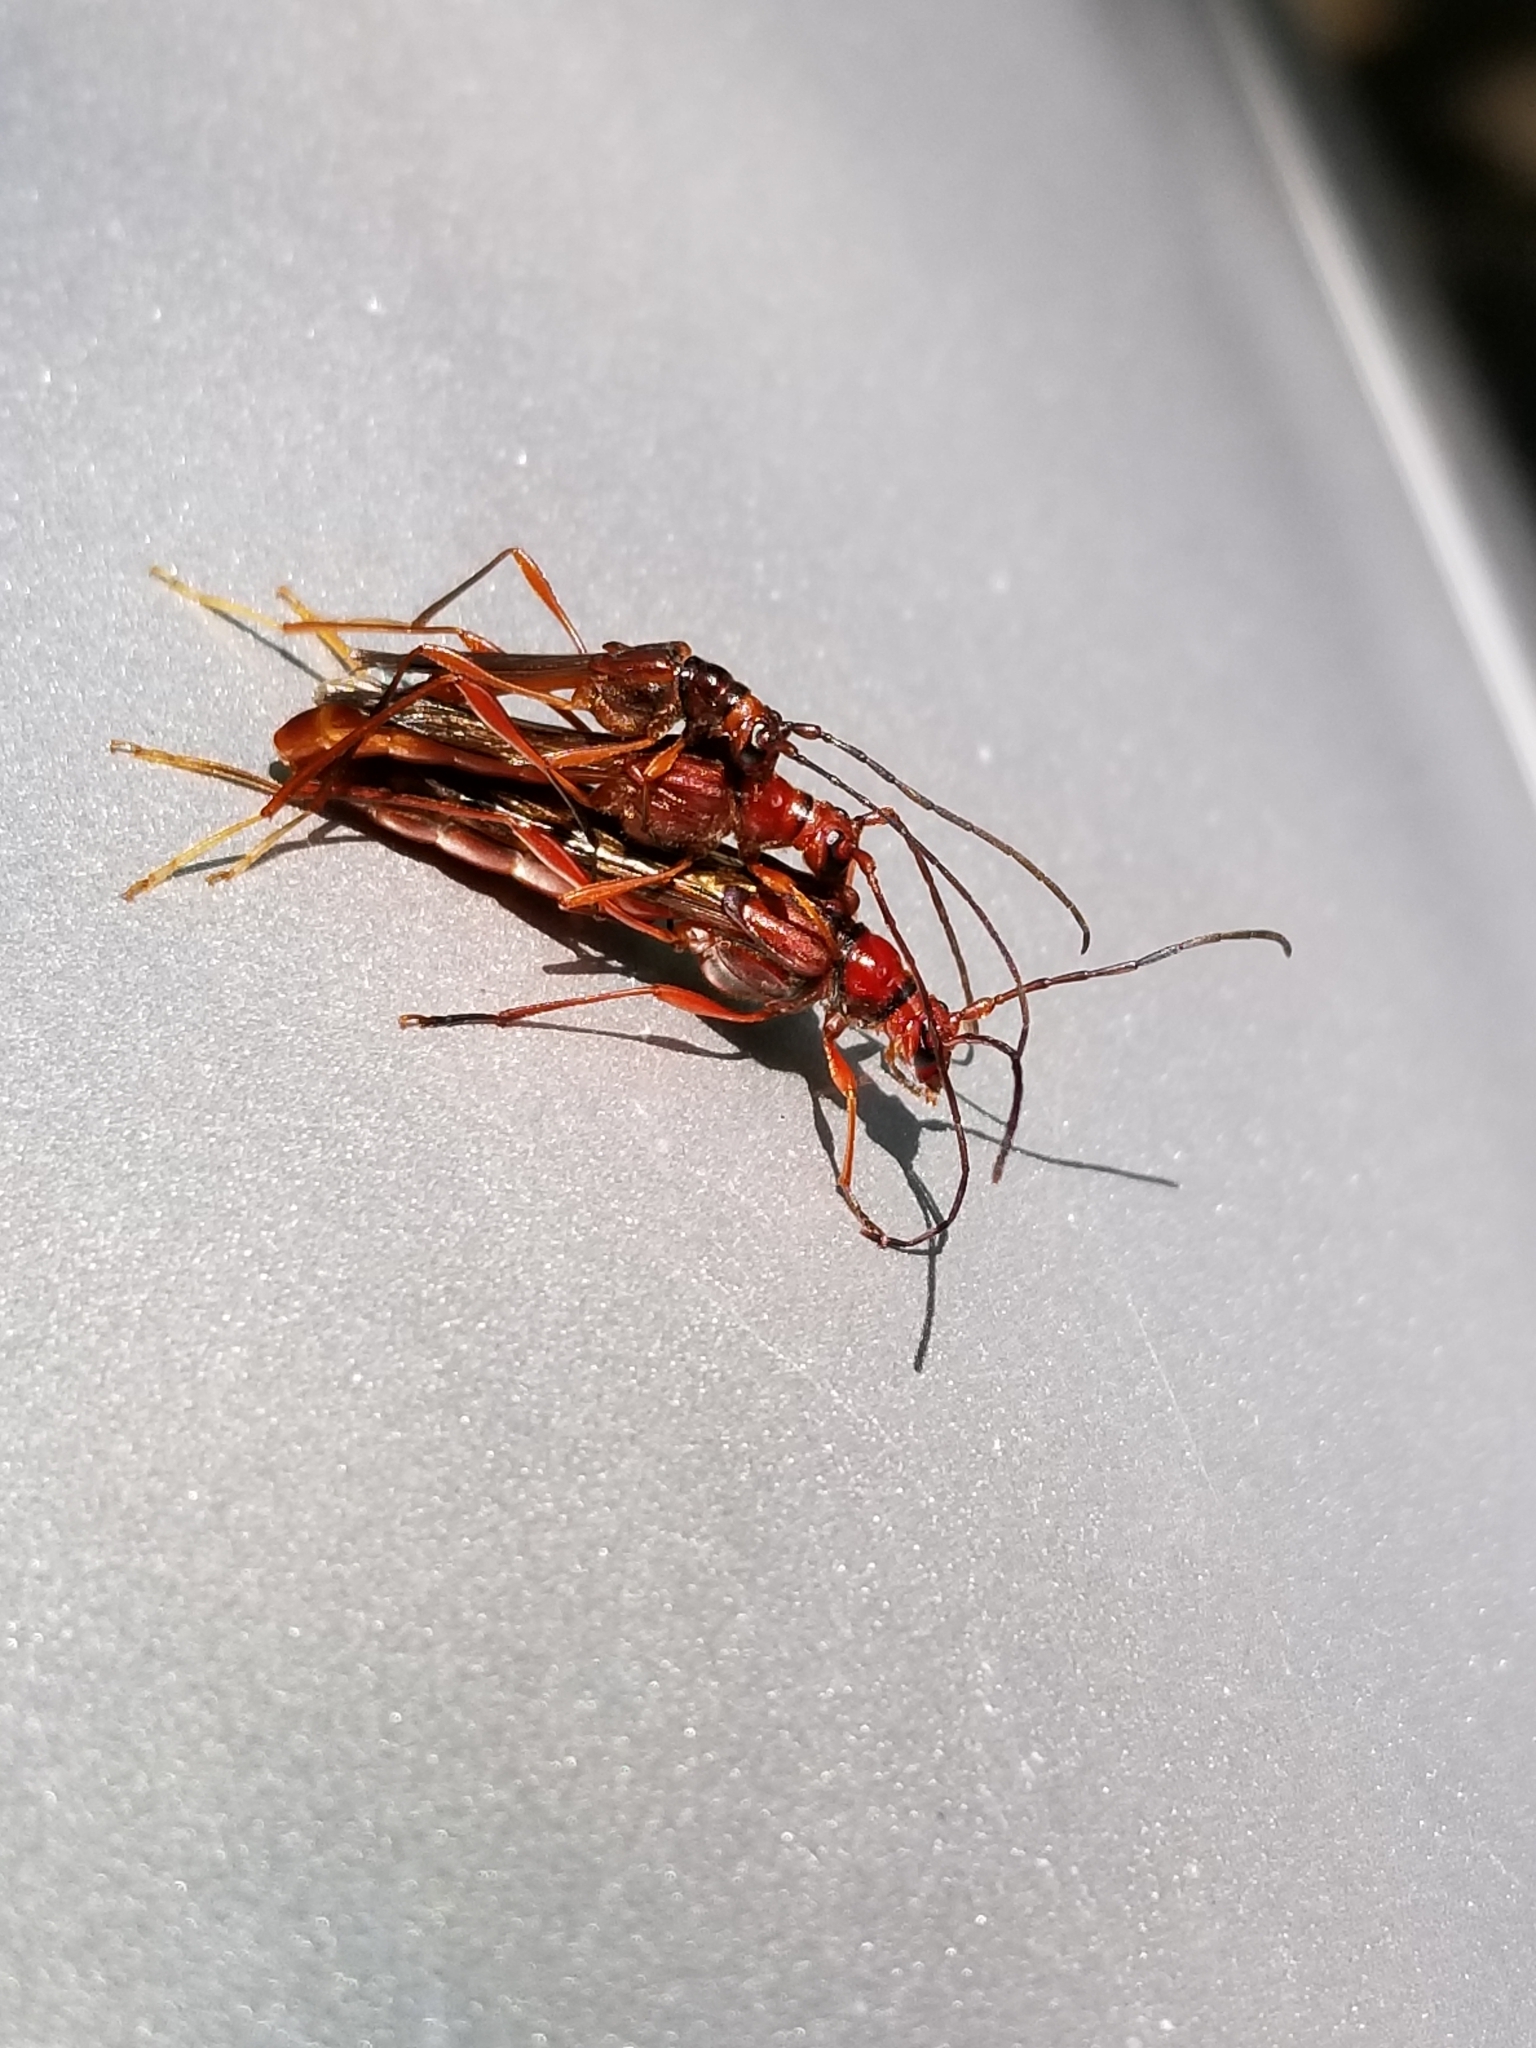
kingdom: Animalia
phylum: Arthropoda
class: Insecta
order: Coleoptera
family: Cerambycidae
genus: Necydalis
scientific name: Necydalis laevicollis
